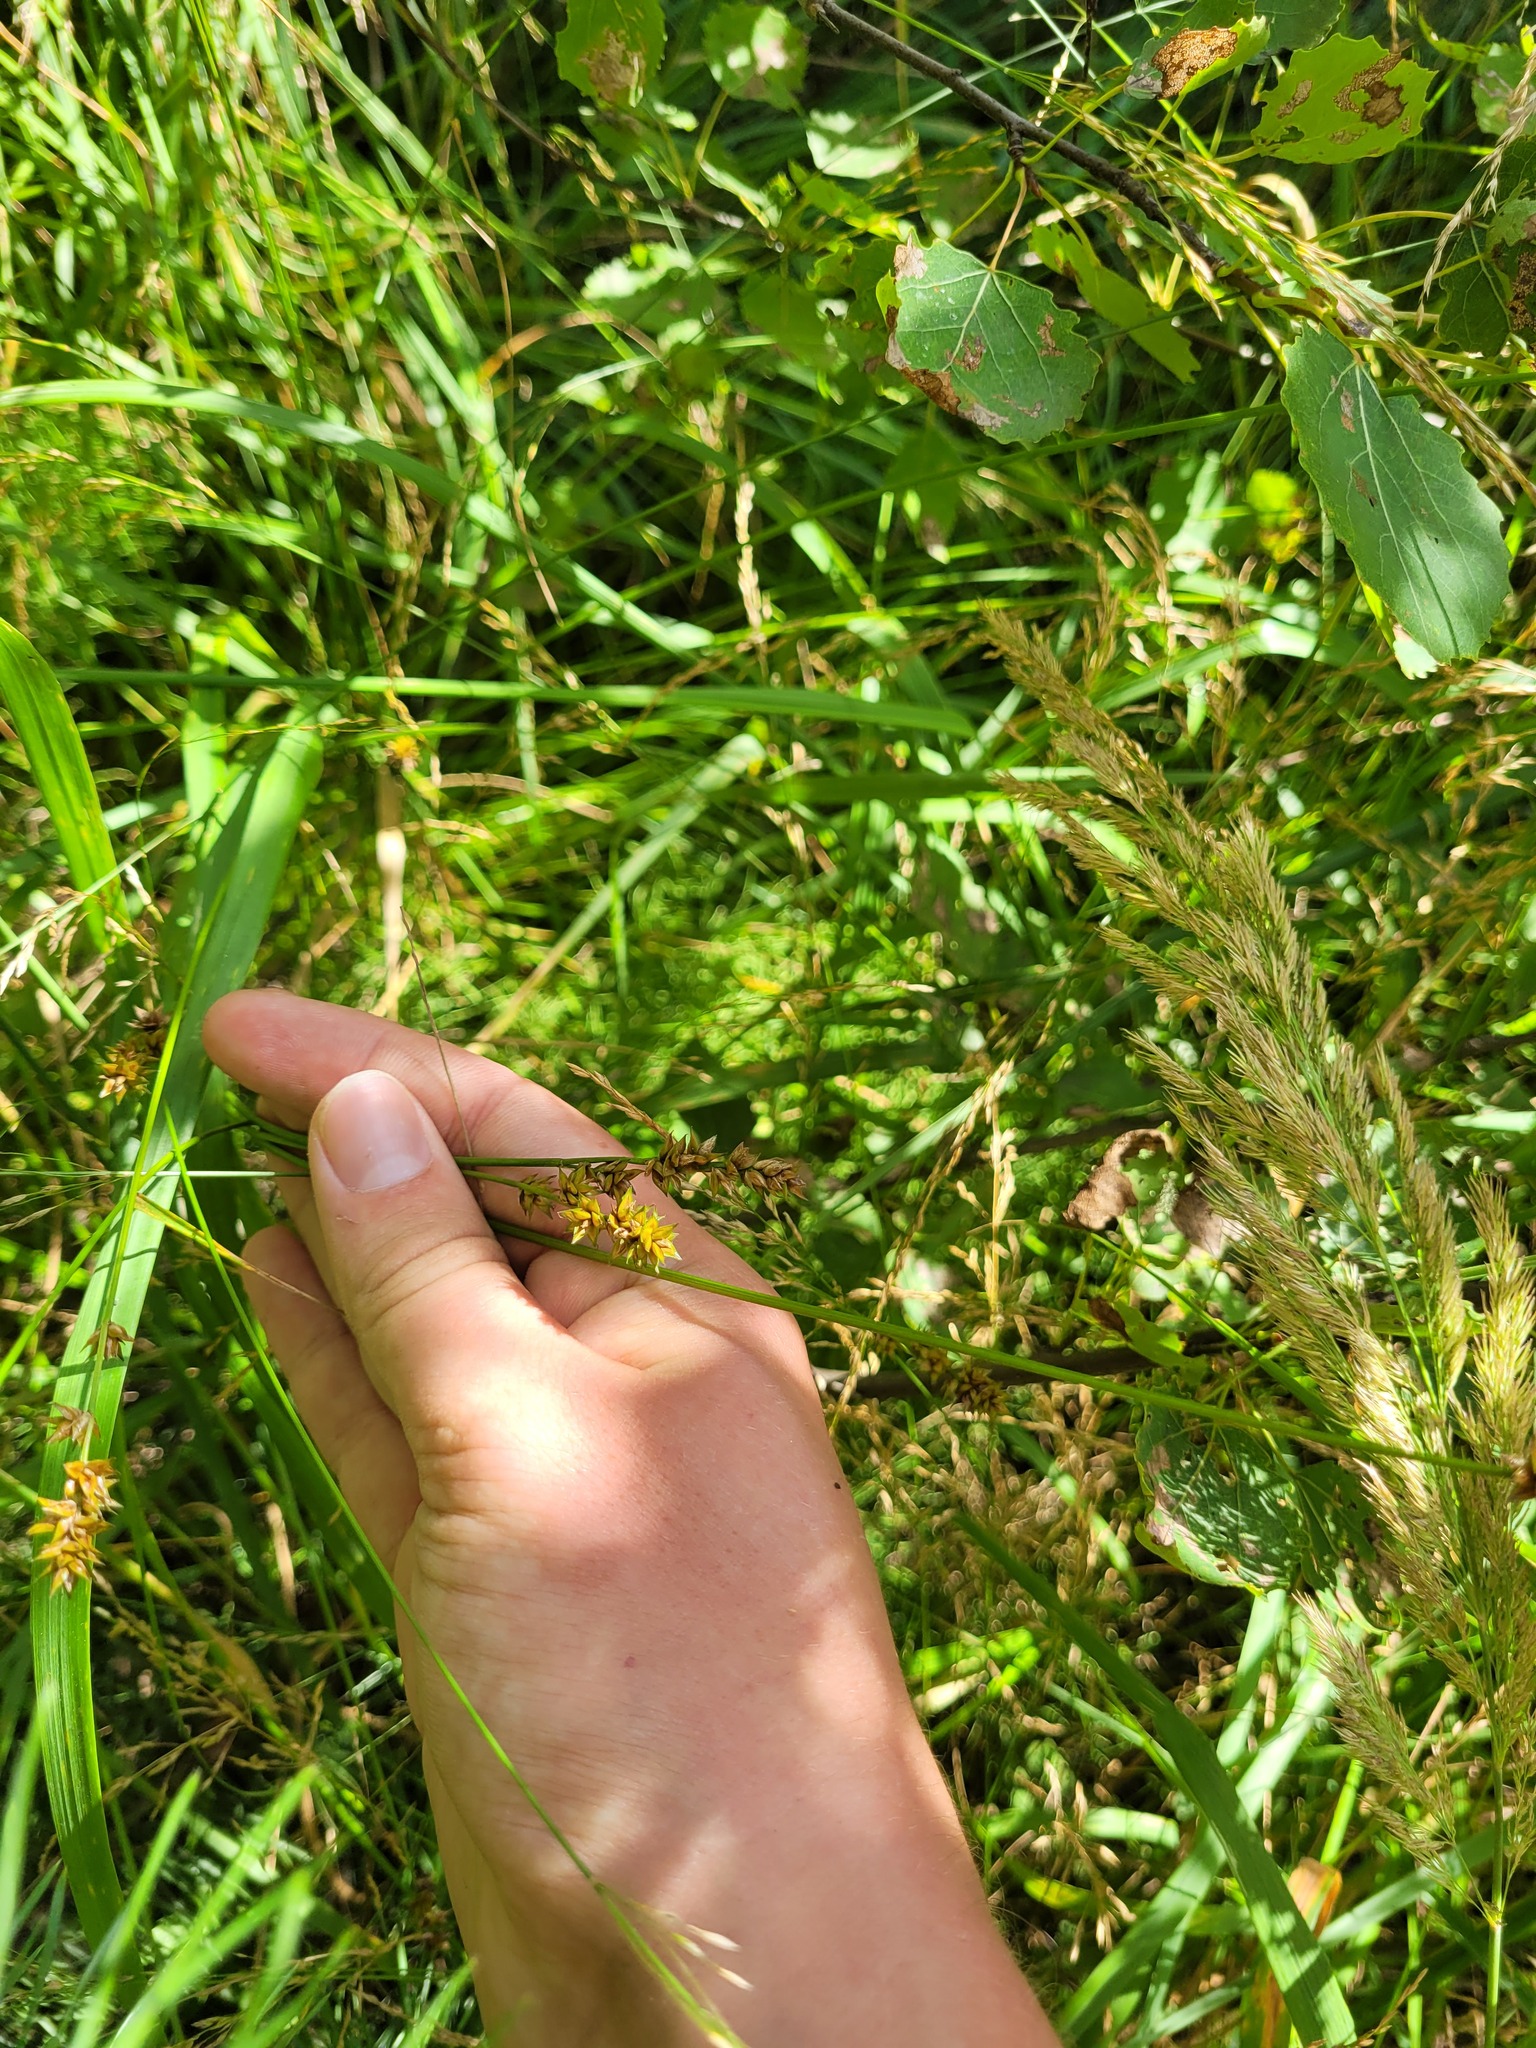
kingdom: Plantae
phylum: Tracheophyta
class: Liliopsida
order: Poales
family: Cyperaceae
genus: Carex
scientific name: Carex spicata
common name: Spiked sedge
